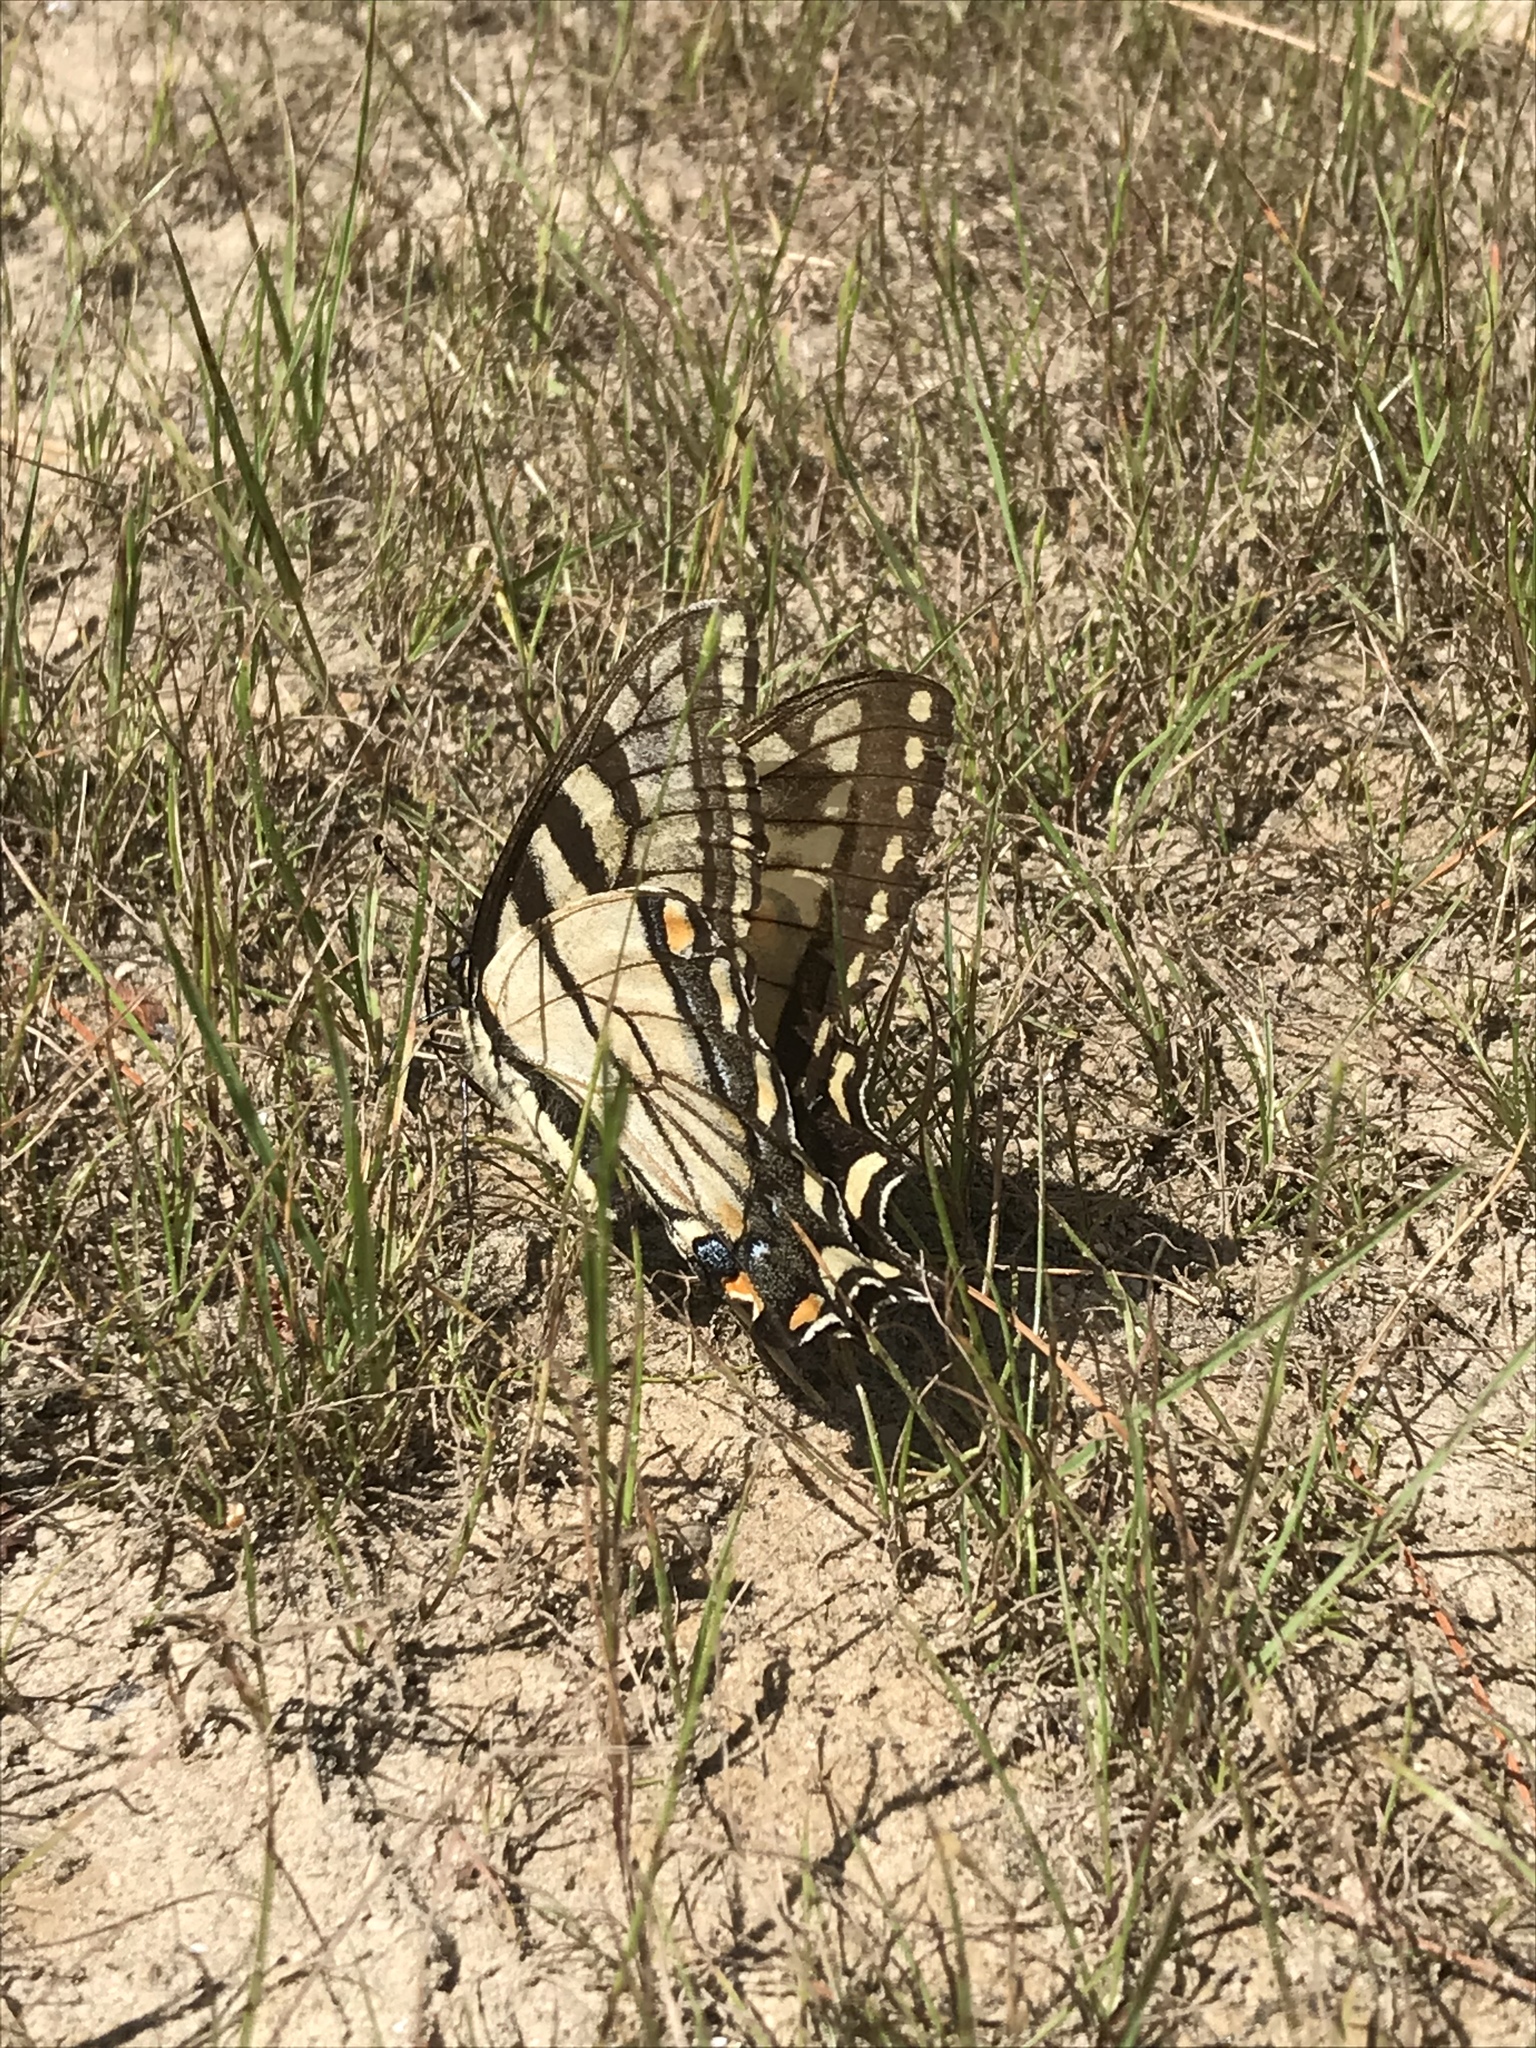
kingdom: Animalia
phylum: Arthropoda
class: Insecta
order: Lepidoptera
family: Papilionidae
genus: Papilio
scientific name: Papilio
